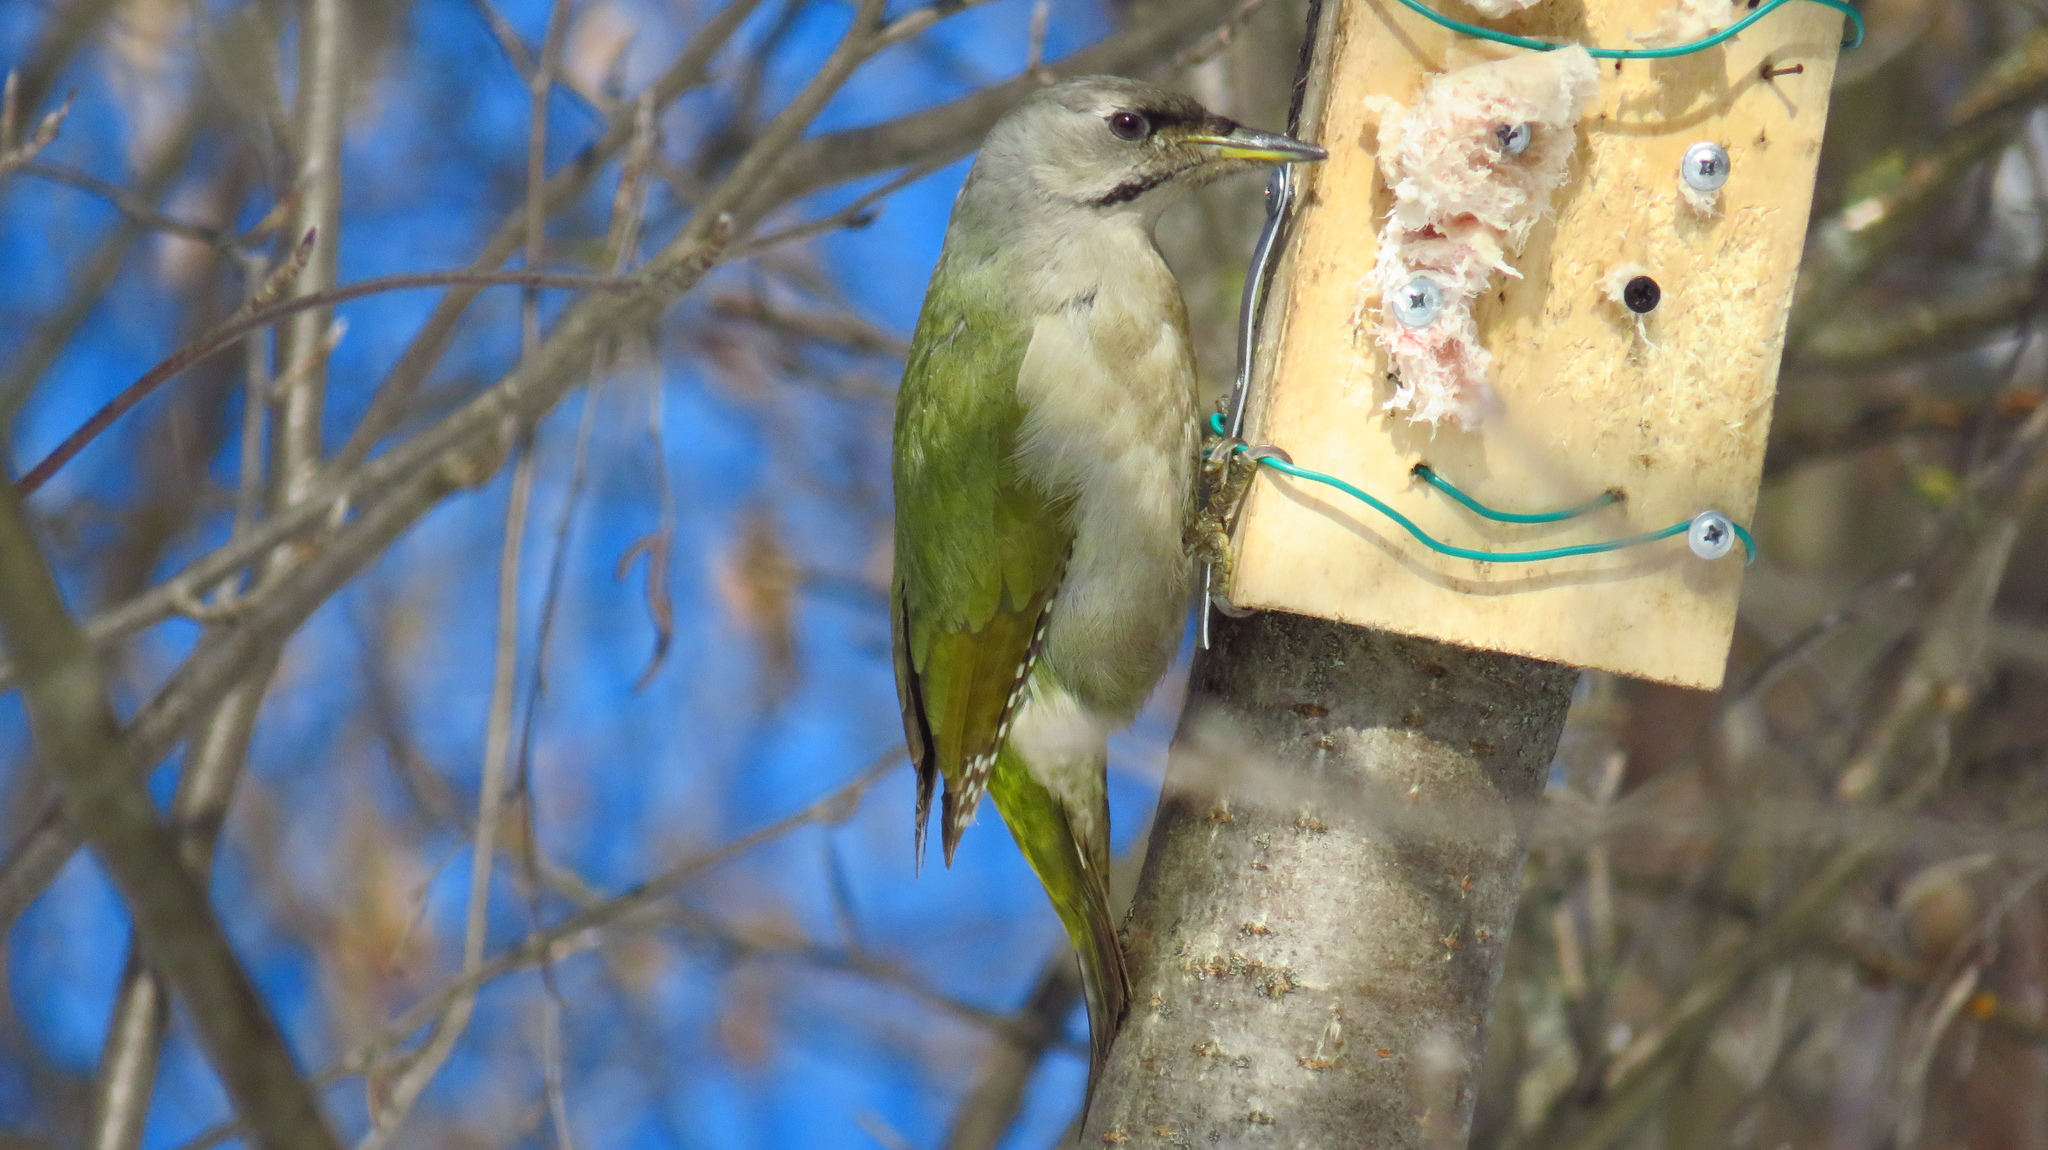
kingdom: Animalia
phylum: Chordata
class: Aves
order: Piciformes
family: Picidae
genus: Picus
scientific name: Picus canus
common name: Grey-headed woodpecker
